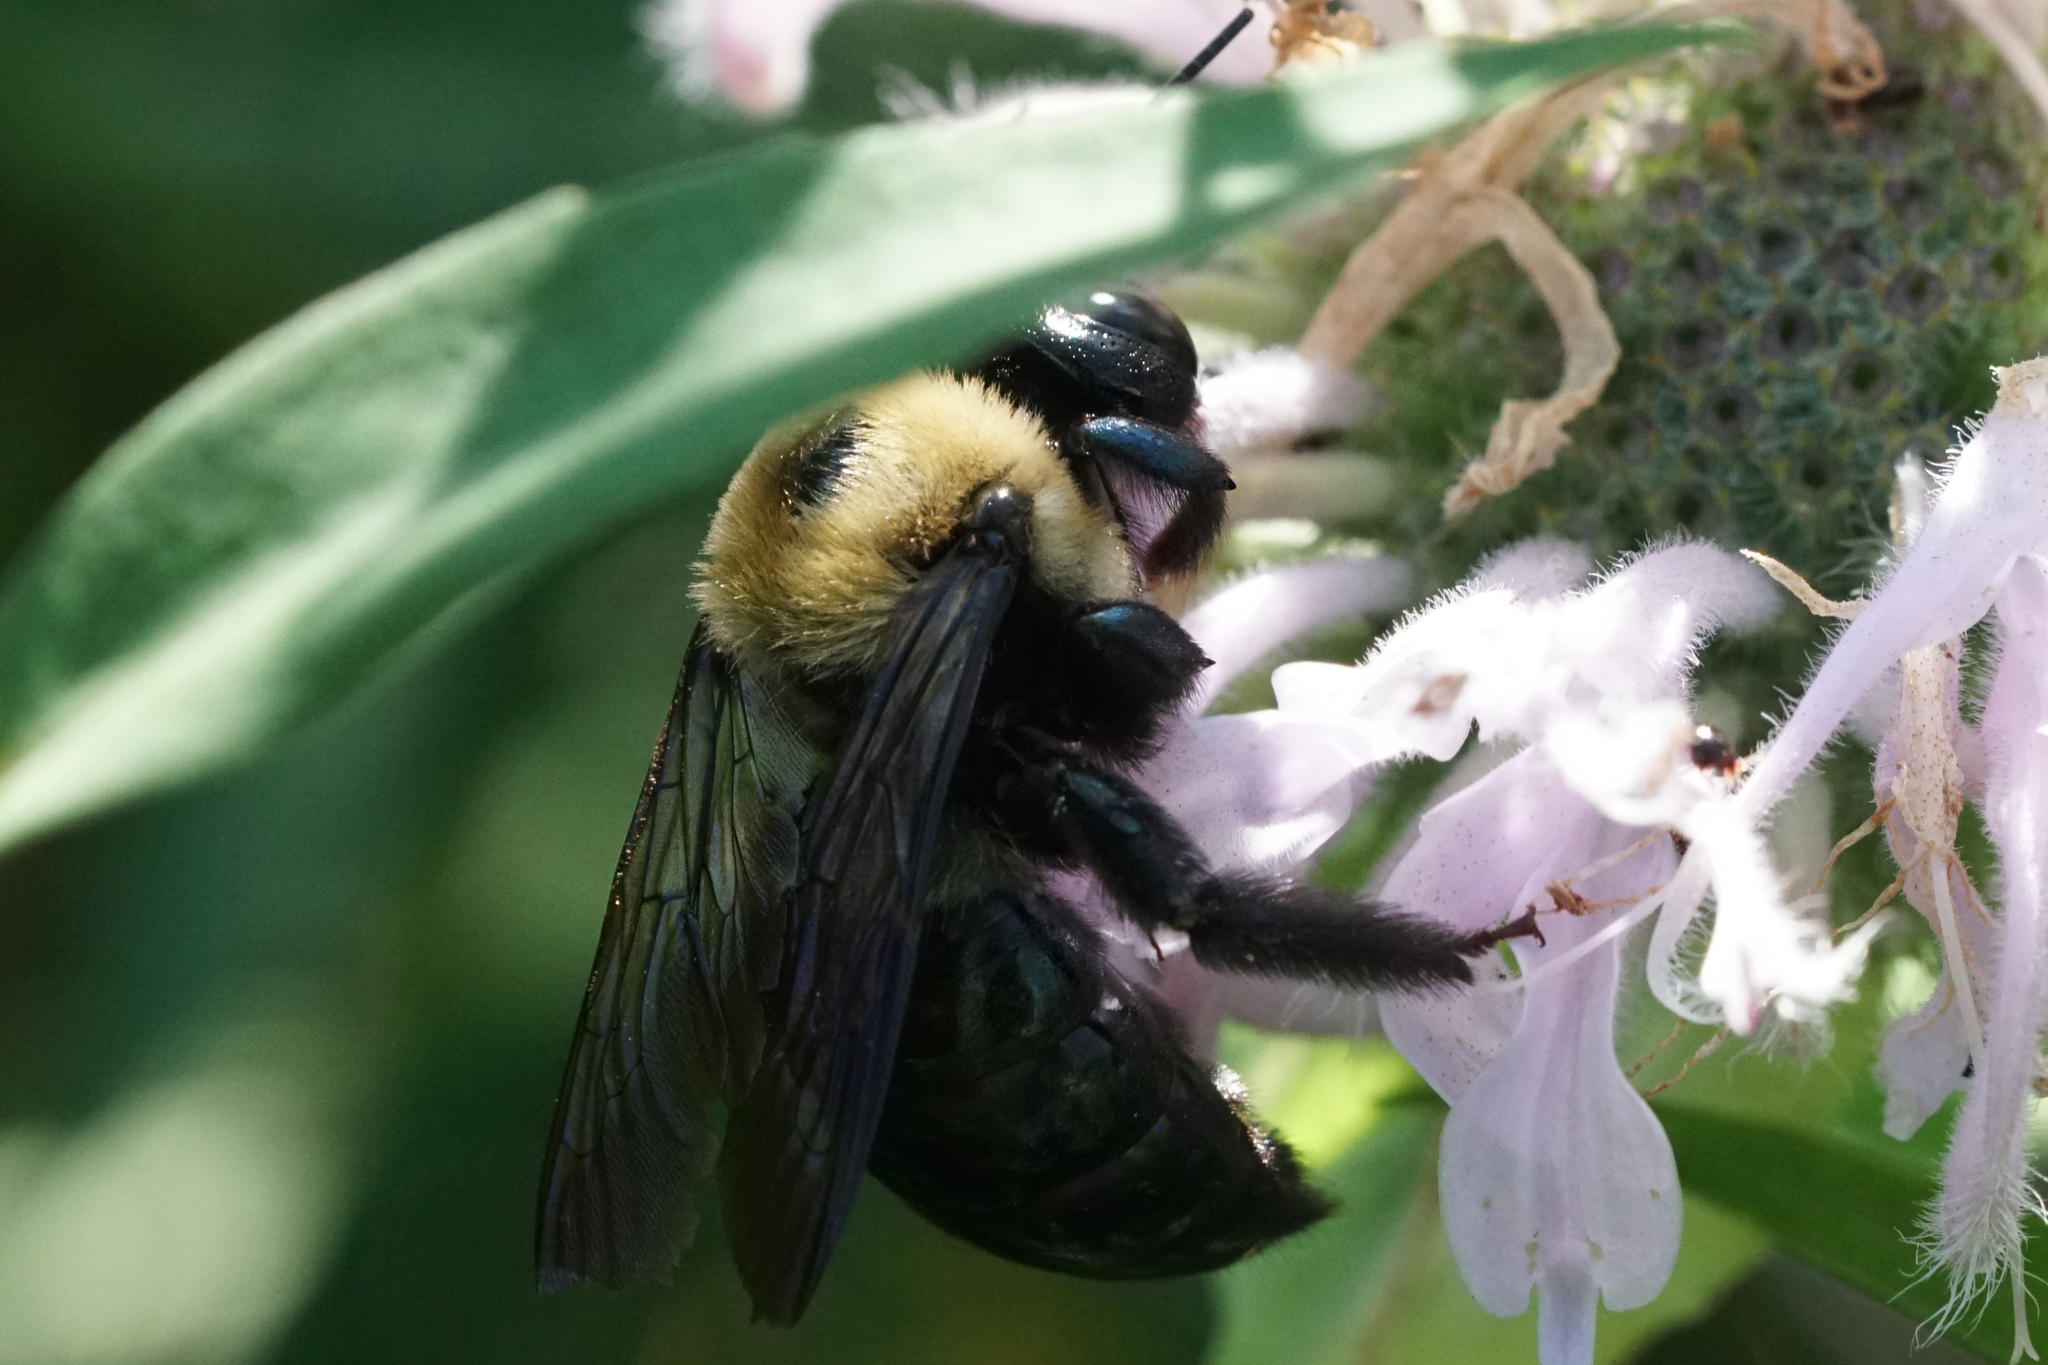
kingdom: Animalia
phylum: Arthropoda
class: Insecta
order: Hymenoptera
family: Apidae
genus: Xylocopa
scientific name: Xylocopa virginica
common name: Carpenter bee
